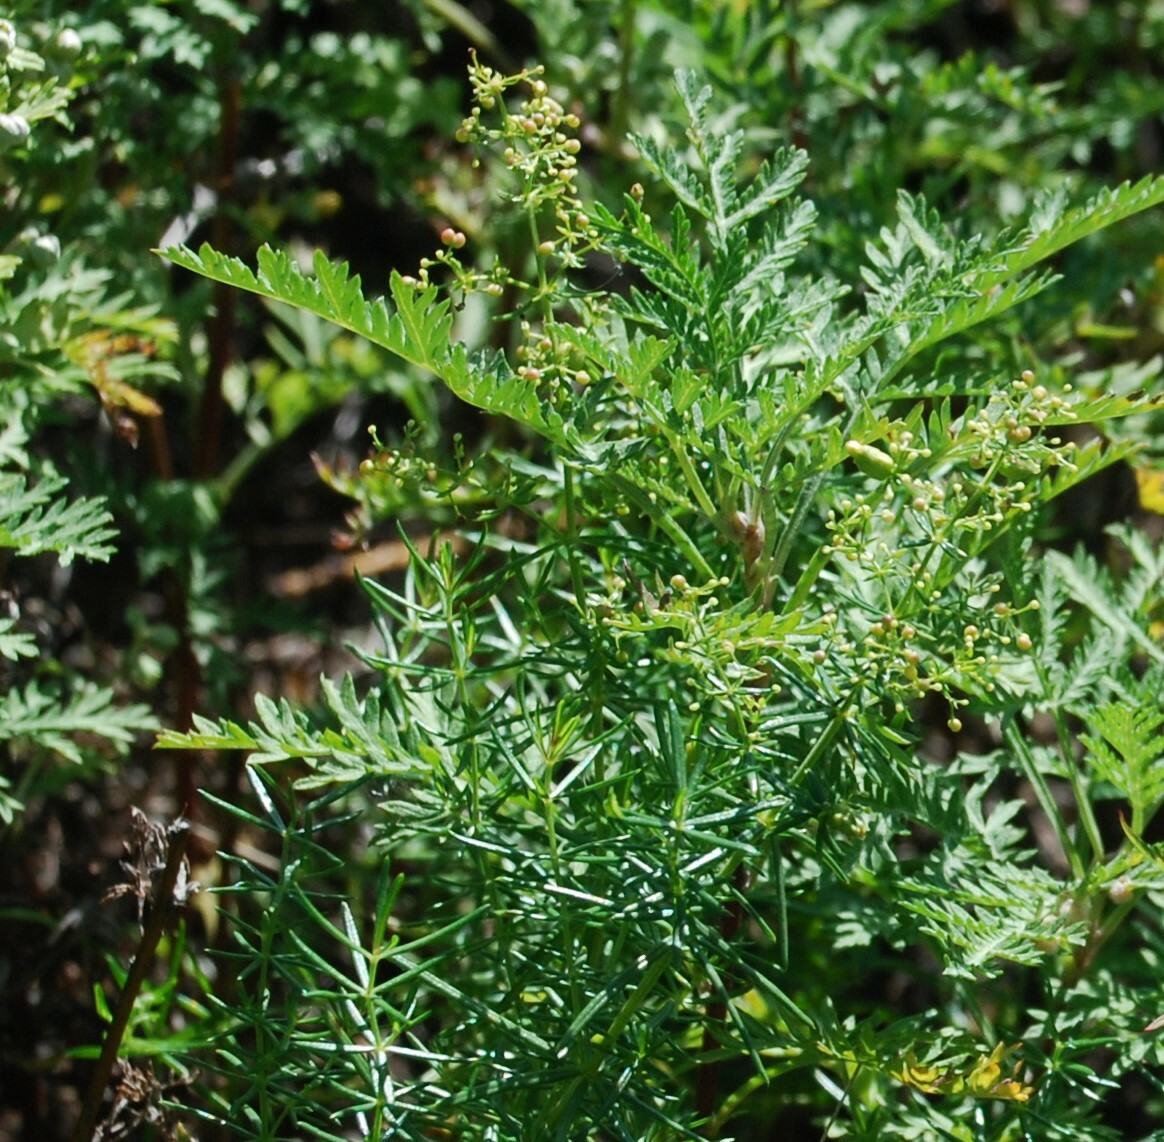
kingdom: Plantae
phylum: Tracheophyta
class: Magnoliopsida
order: Gentianales
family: Rubiaceae
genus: Galium
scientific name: Galium verum
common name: Lady's bedstraw
